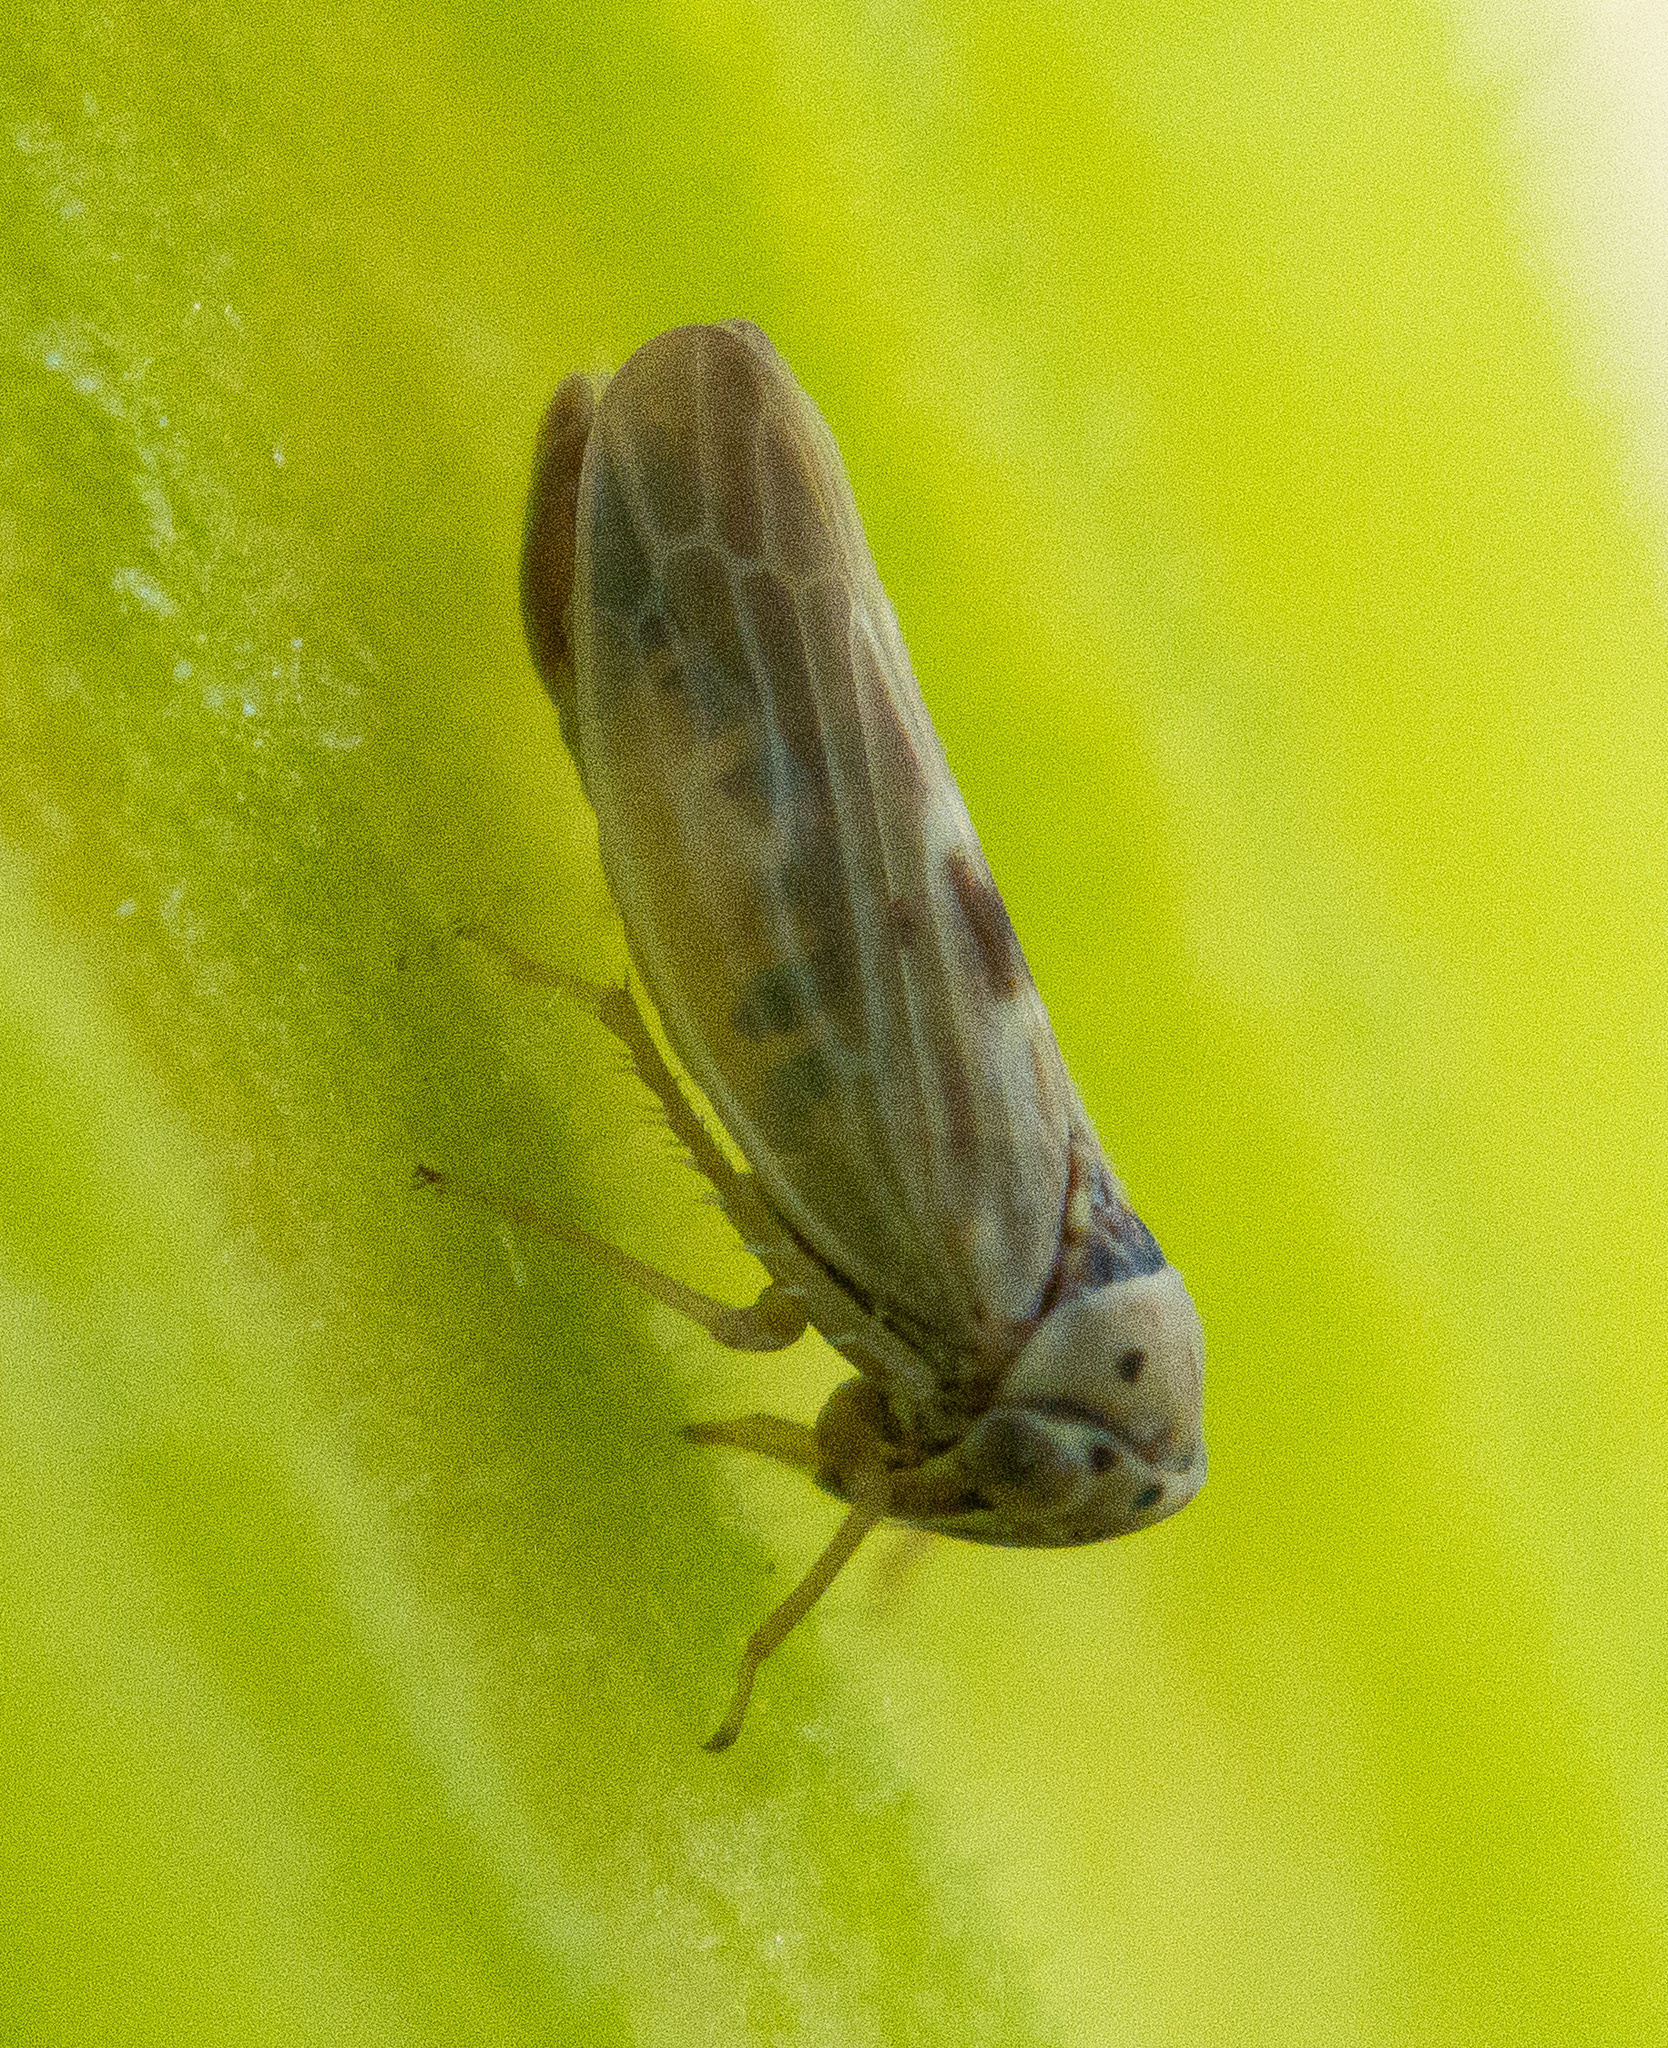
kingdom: Animalia
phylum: Arthropoda
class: Insecta
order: Hemiptera
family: Cicadellidae
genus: Agalliopsis
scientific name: Agalliopsis ancistra
